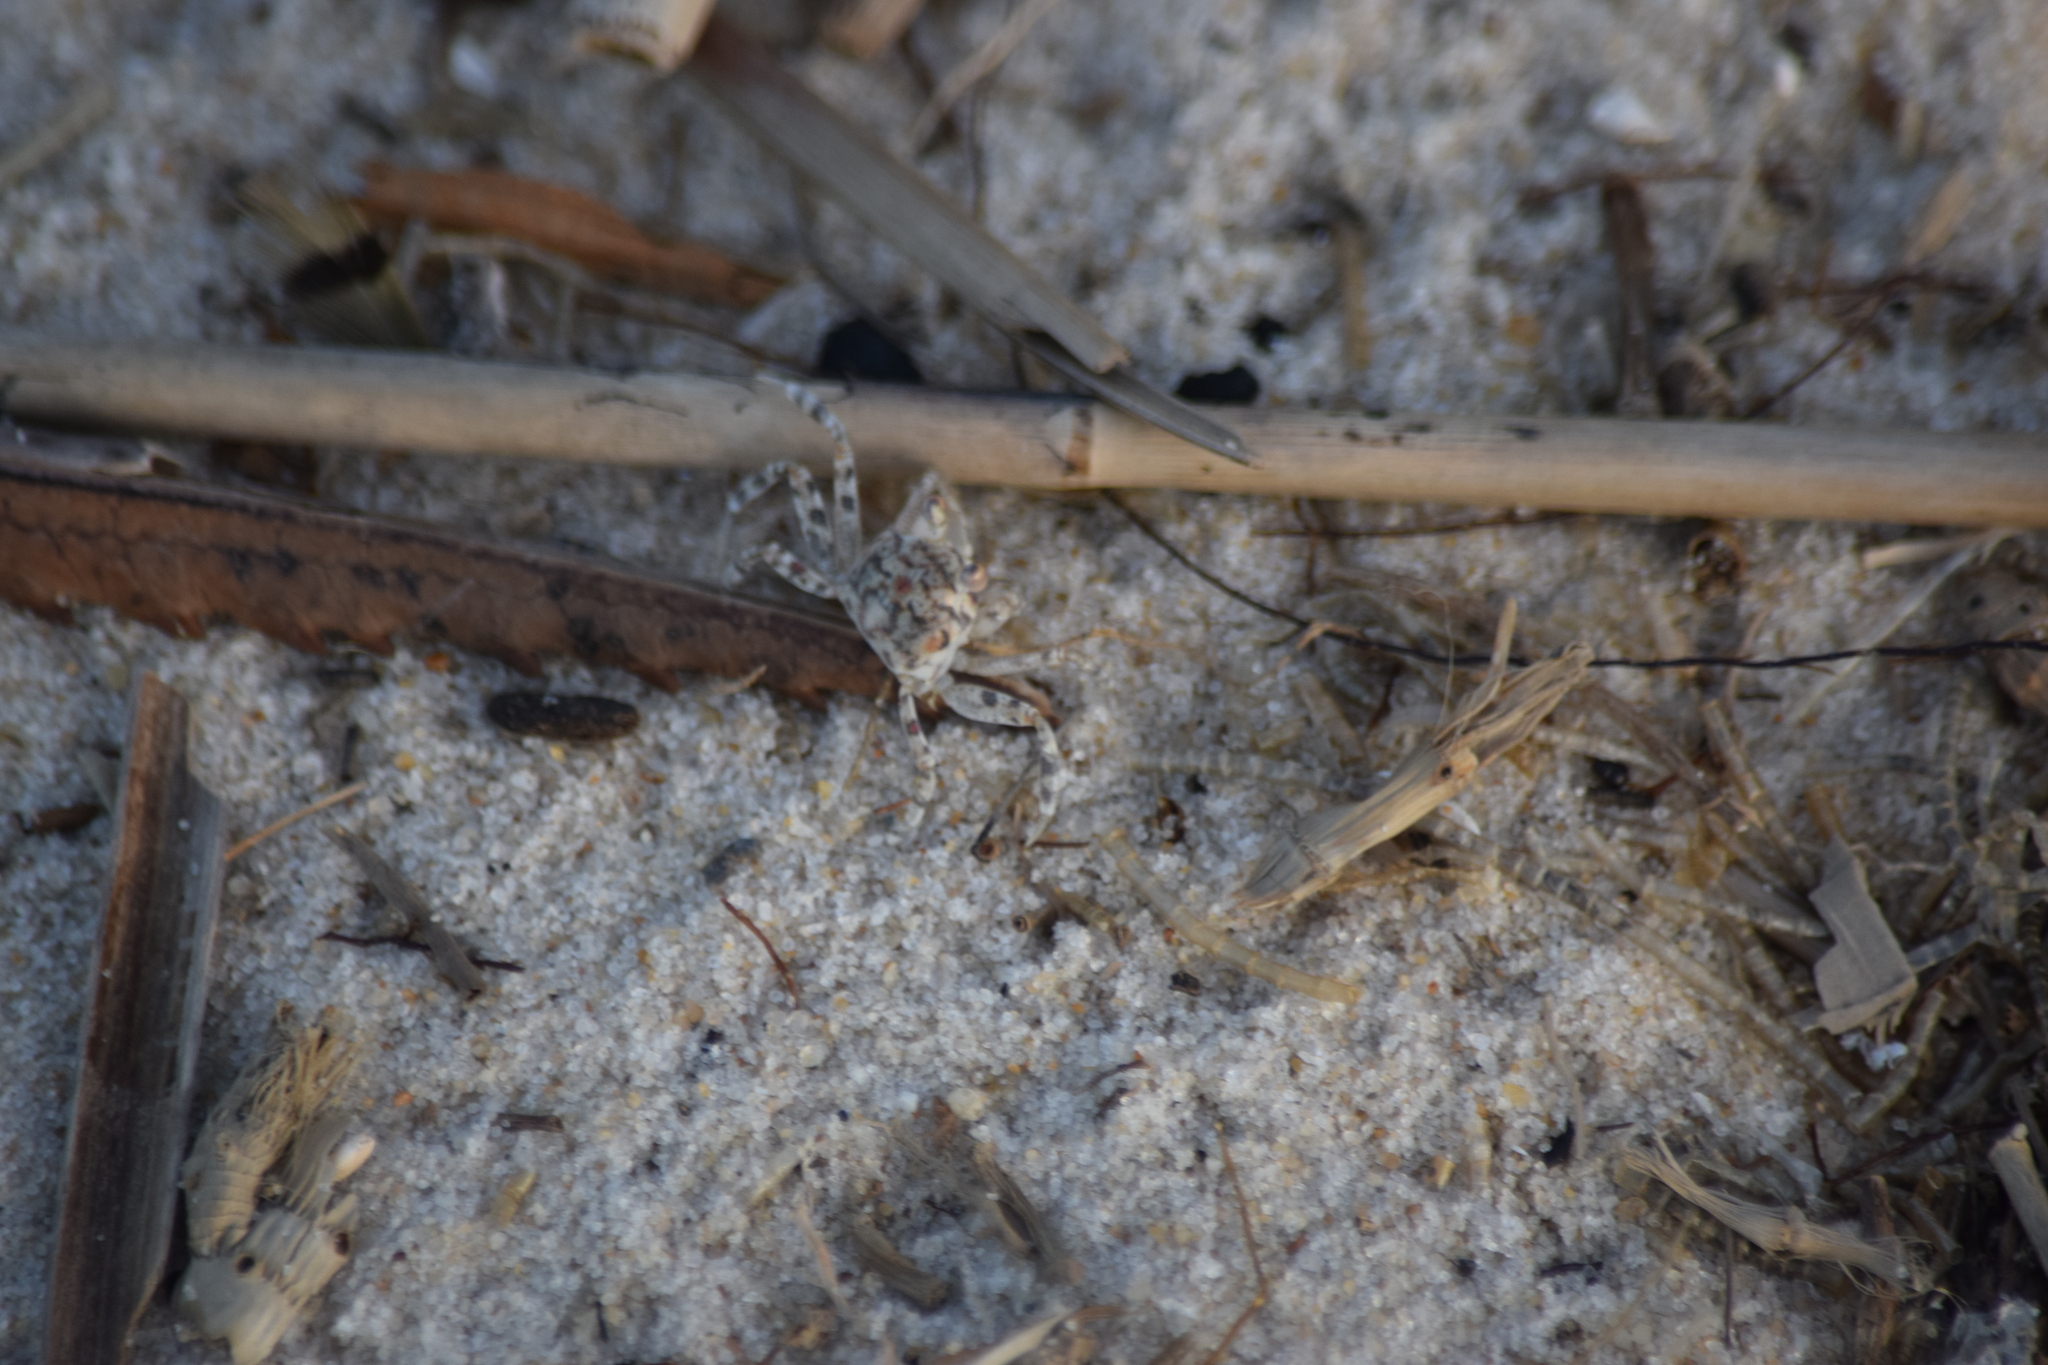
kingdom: Animalia
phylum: Arthropoda
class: Malacostraca
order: Decapoda
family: Ocypodidae
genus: Ocypode
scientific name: Ocypode quadrata
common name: Ghost crab
